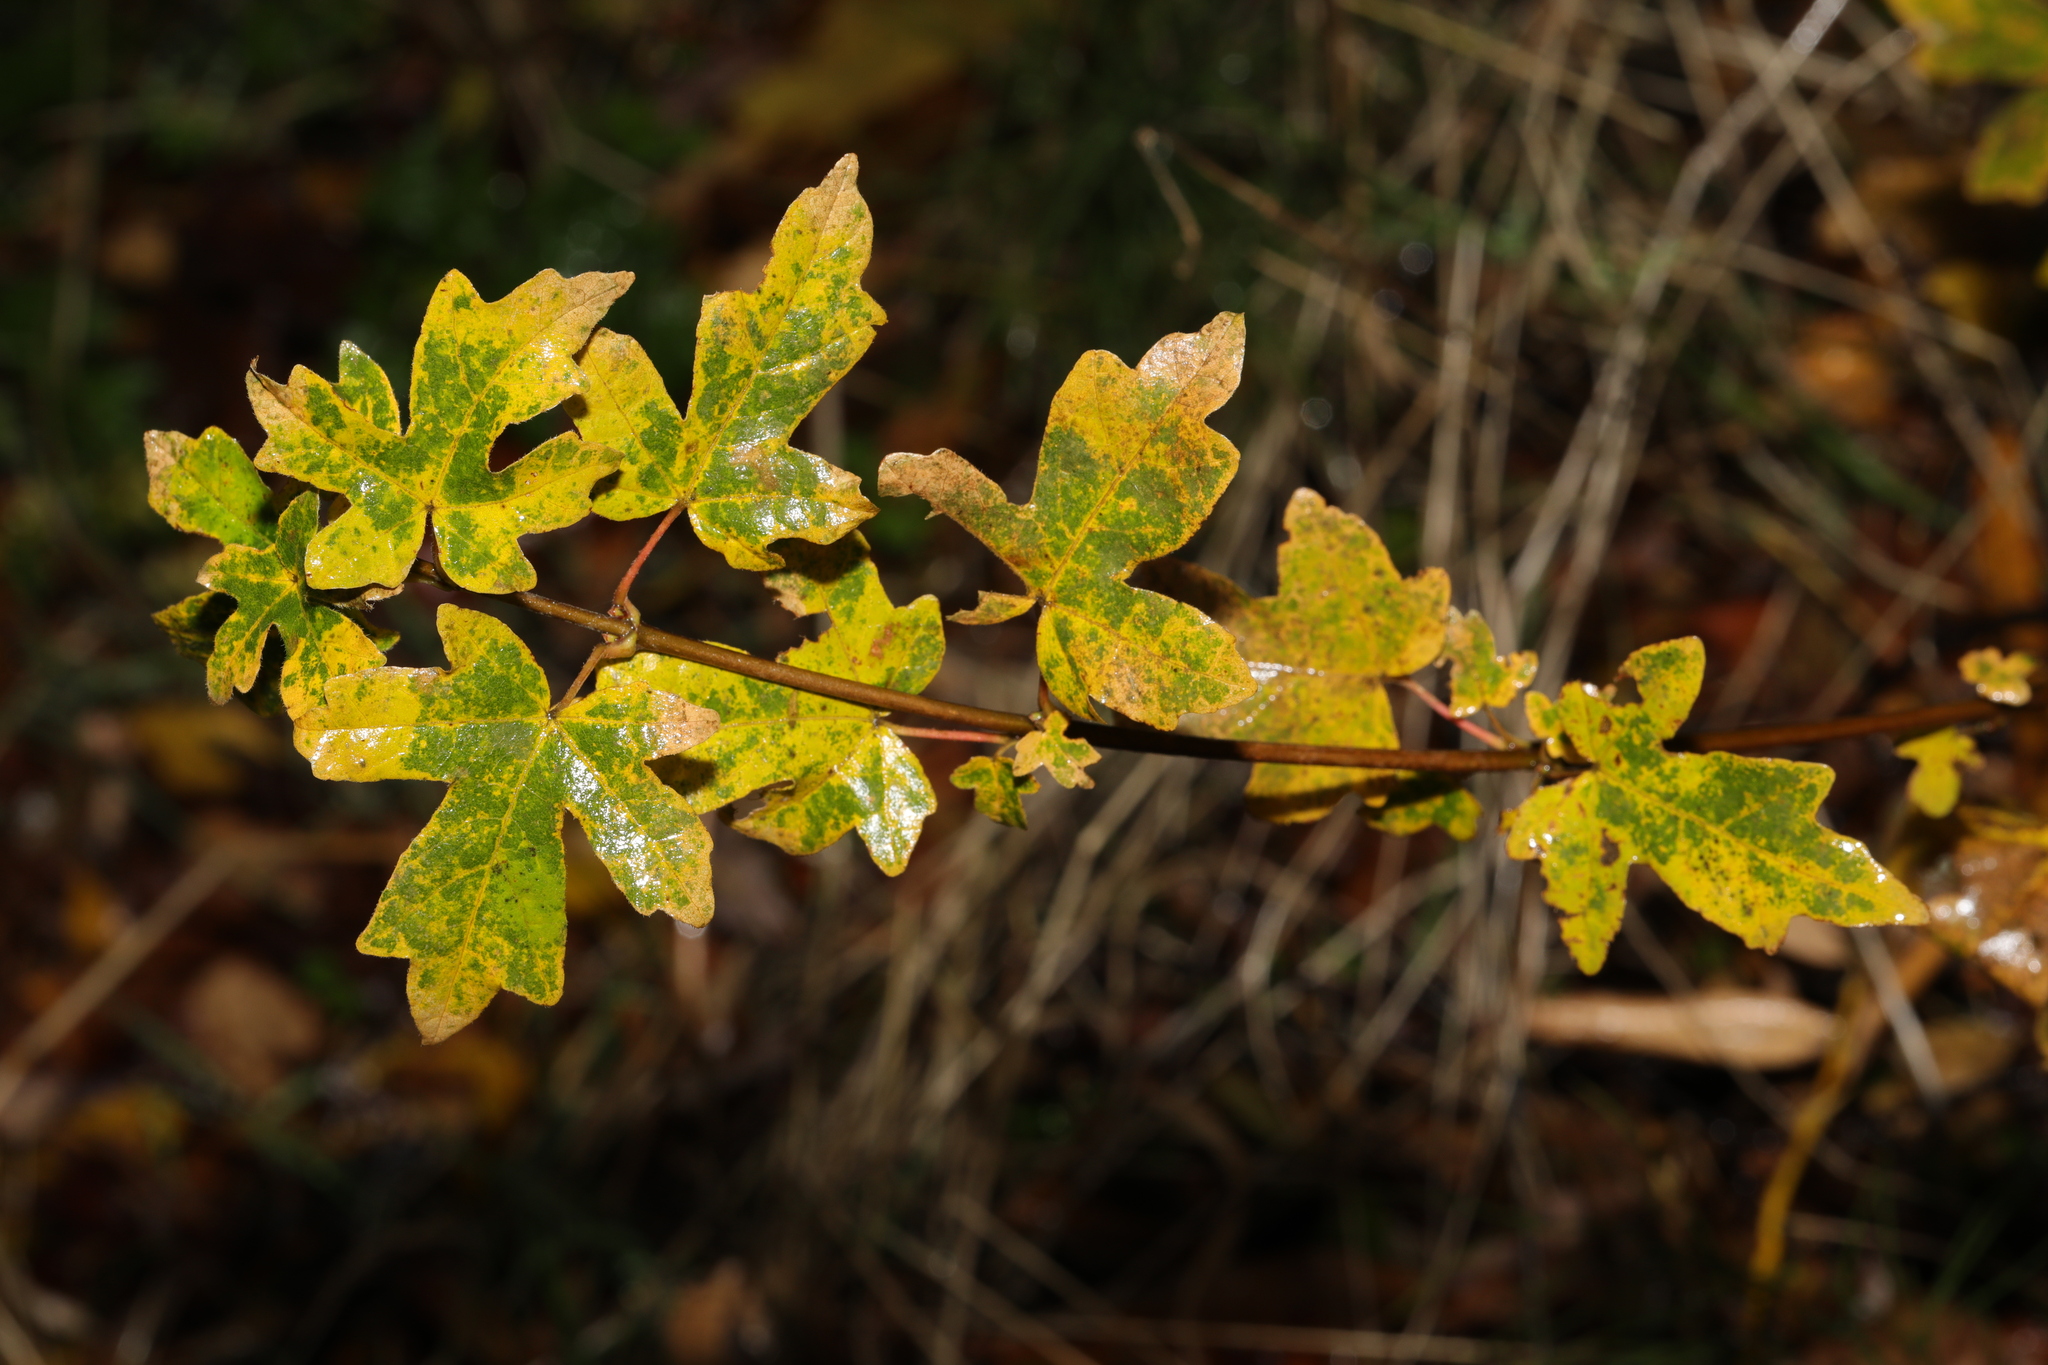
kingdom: Plantae
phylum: Tracheophyta
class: Magnoliopsida
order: Sapindales
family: Sapindaceae
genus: Acer
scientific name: Acer campestre
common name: Field maple
